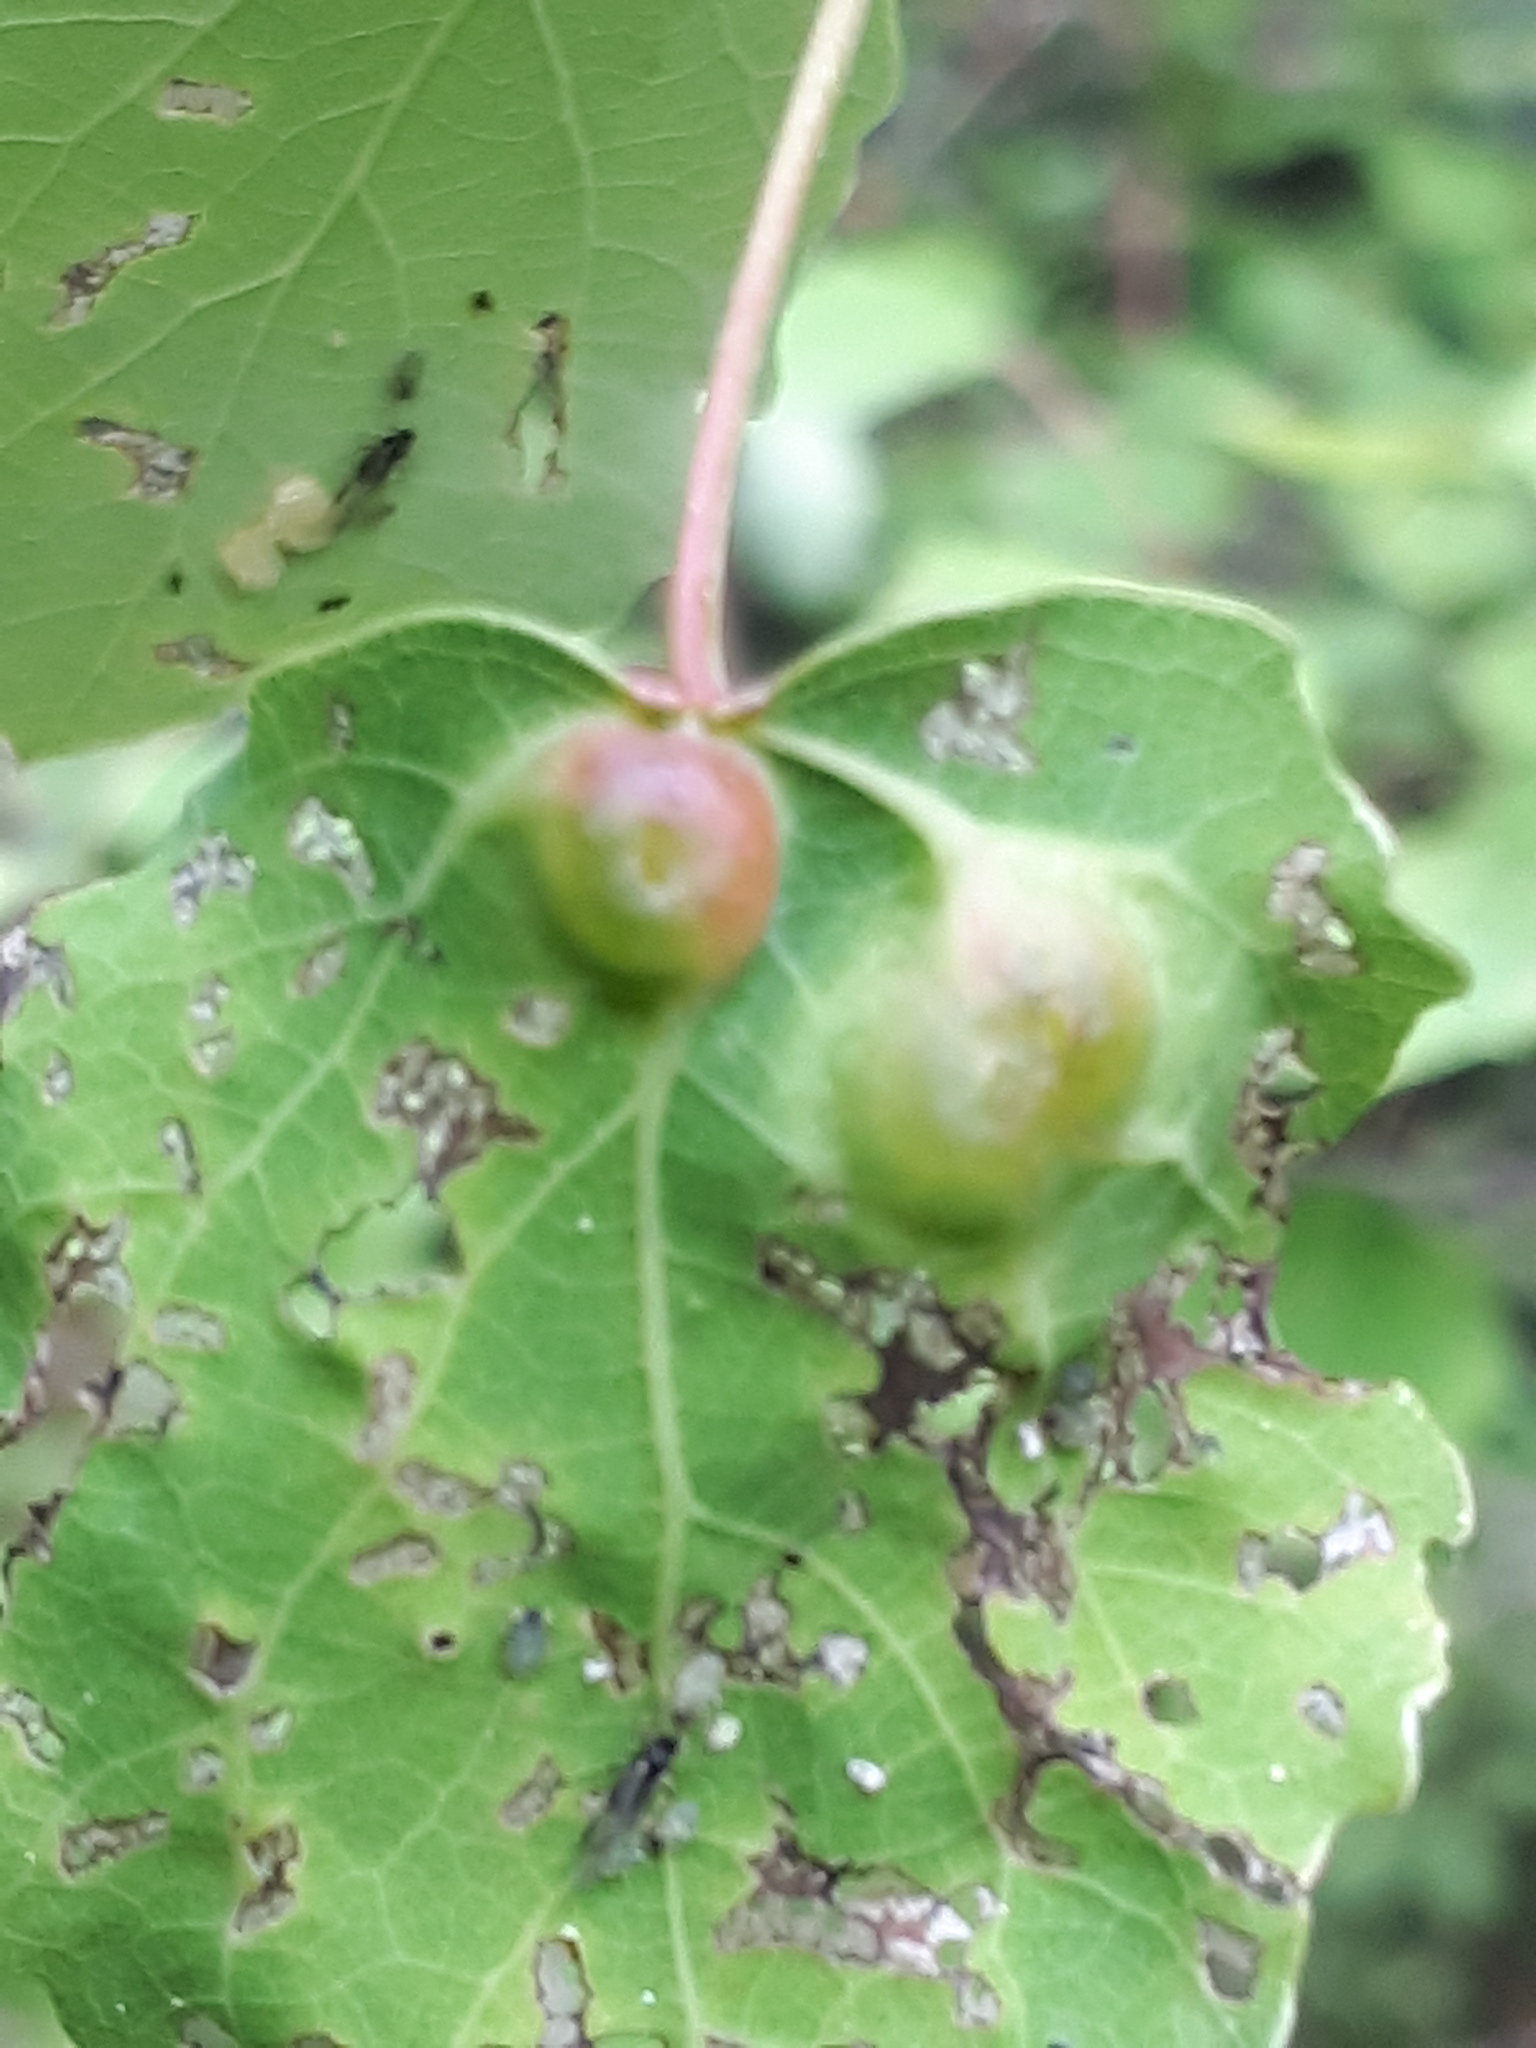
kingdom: Animalia
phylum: Arthropoda
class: Insecta
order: Diptera
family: Cecidomyiidae
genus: Harmandiola
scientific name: Harmandiola cavernosa
